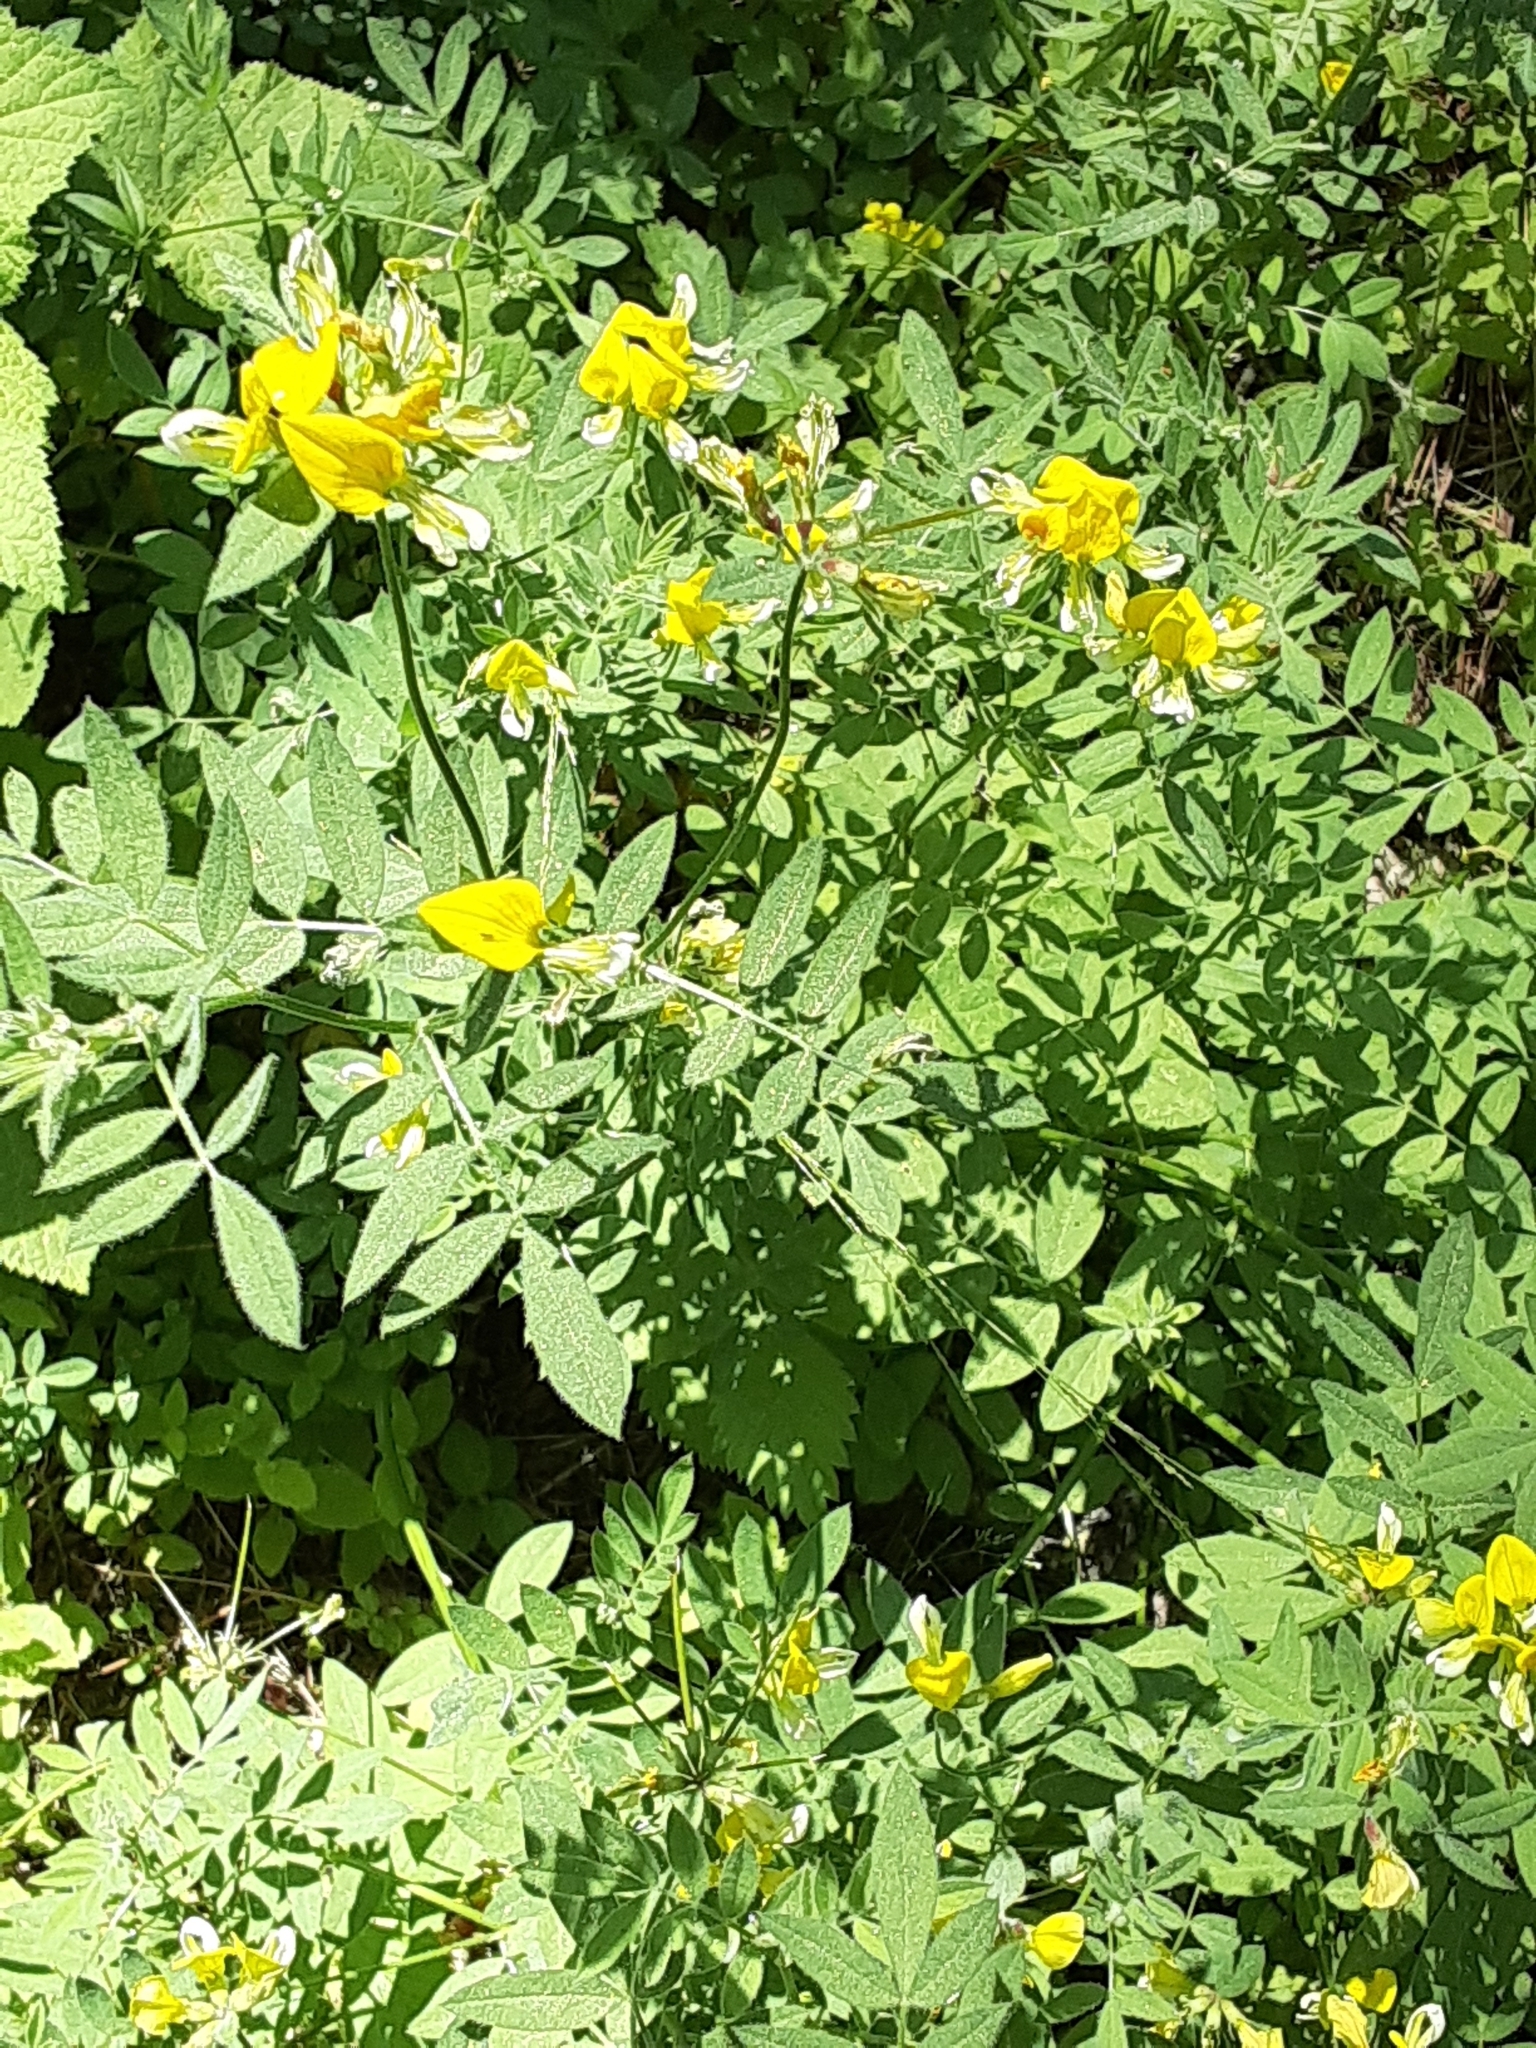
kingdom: Plantae
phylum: Tracheophyta
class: Magnoliopsida
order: Fabales
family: Fabaceae
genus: Hosackia
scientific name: Hosackia oblongifolia
